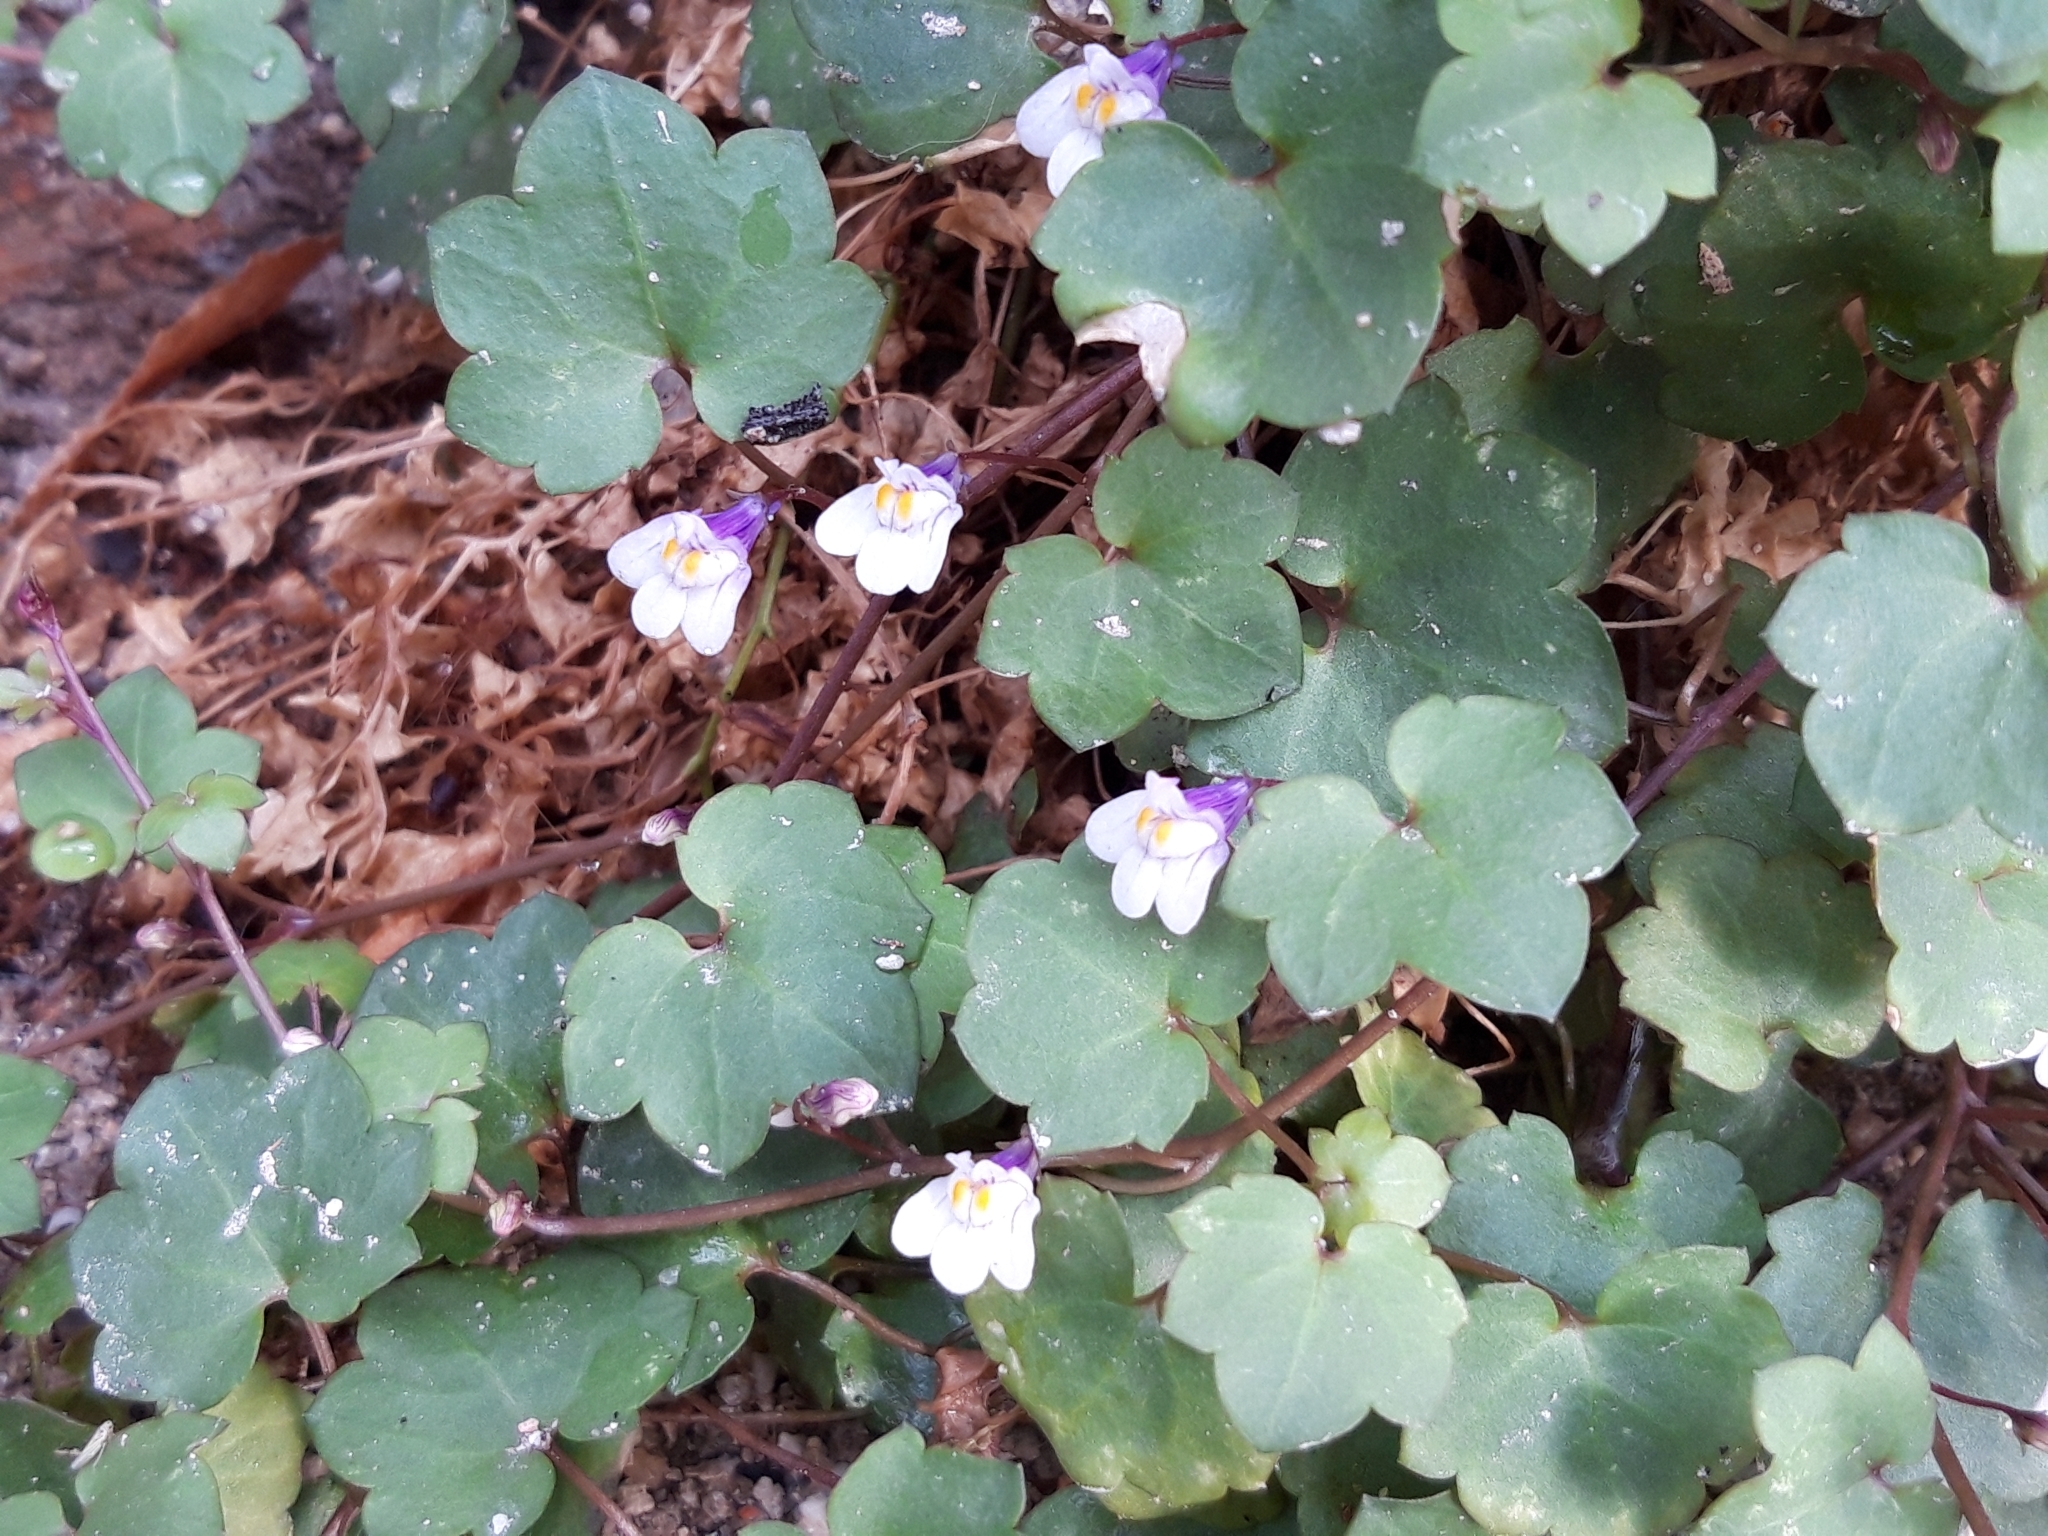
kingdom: Plantae
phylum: Tracheophyta
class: Magnoliopsida
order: Lamiales
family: Plantaginaceae
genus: Cymbalaria
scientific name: Cymbalaria muralis
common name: Ivy-leaved toadflax
